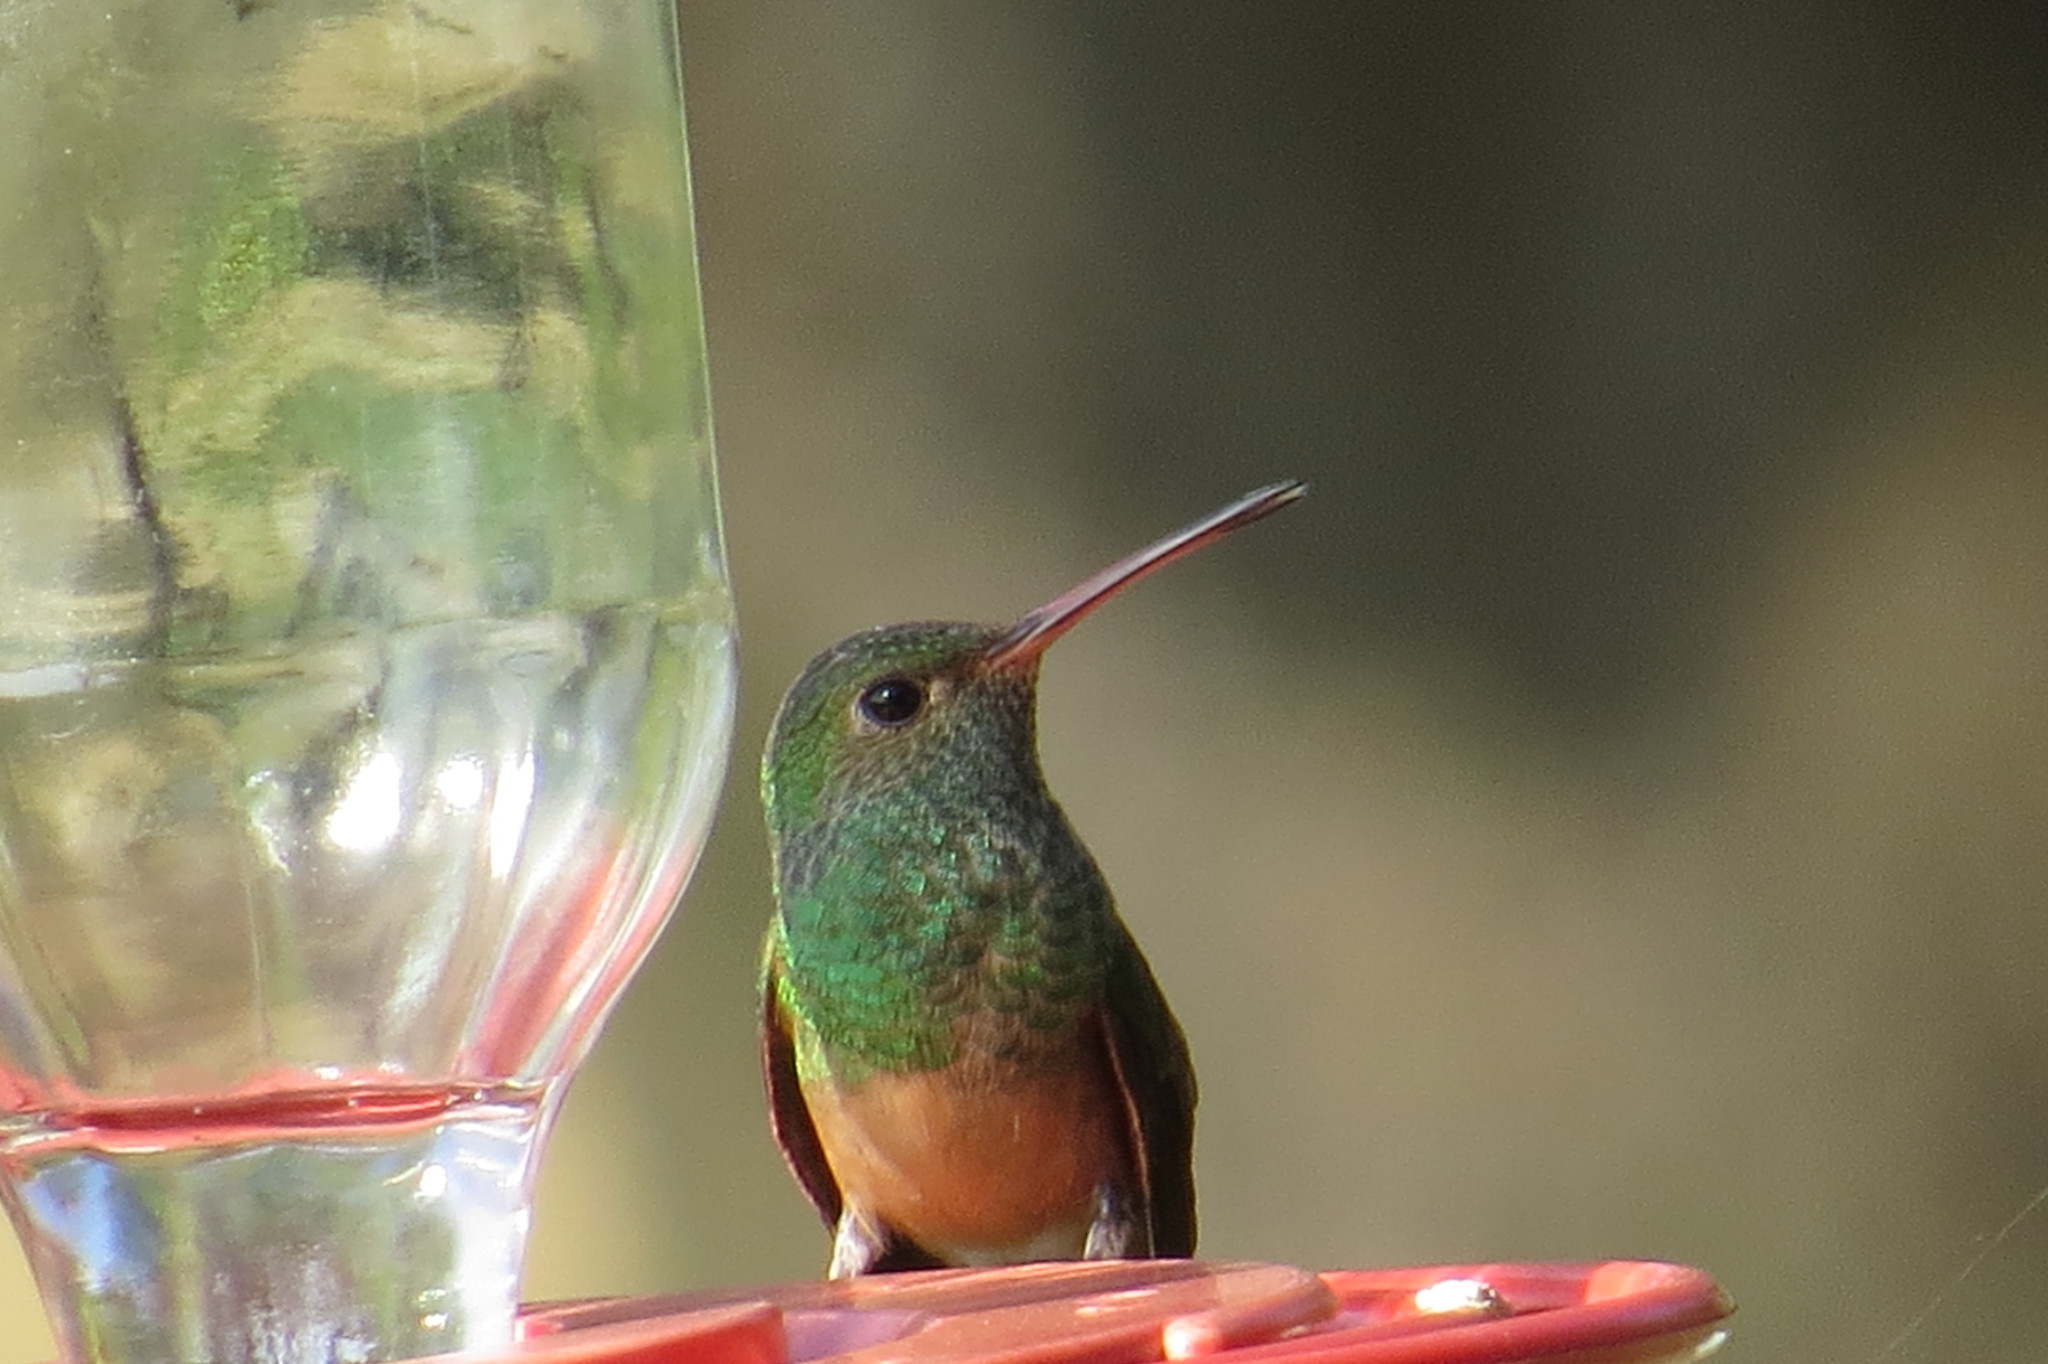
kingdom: Animalia
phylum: Chordata
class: Aves
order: Apodiformes
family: Trochilidae
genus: Amazilia
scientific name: Amazilia yucatanensis
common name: Buff-bellied hummingbird
